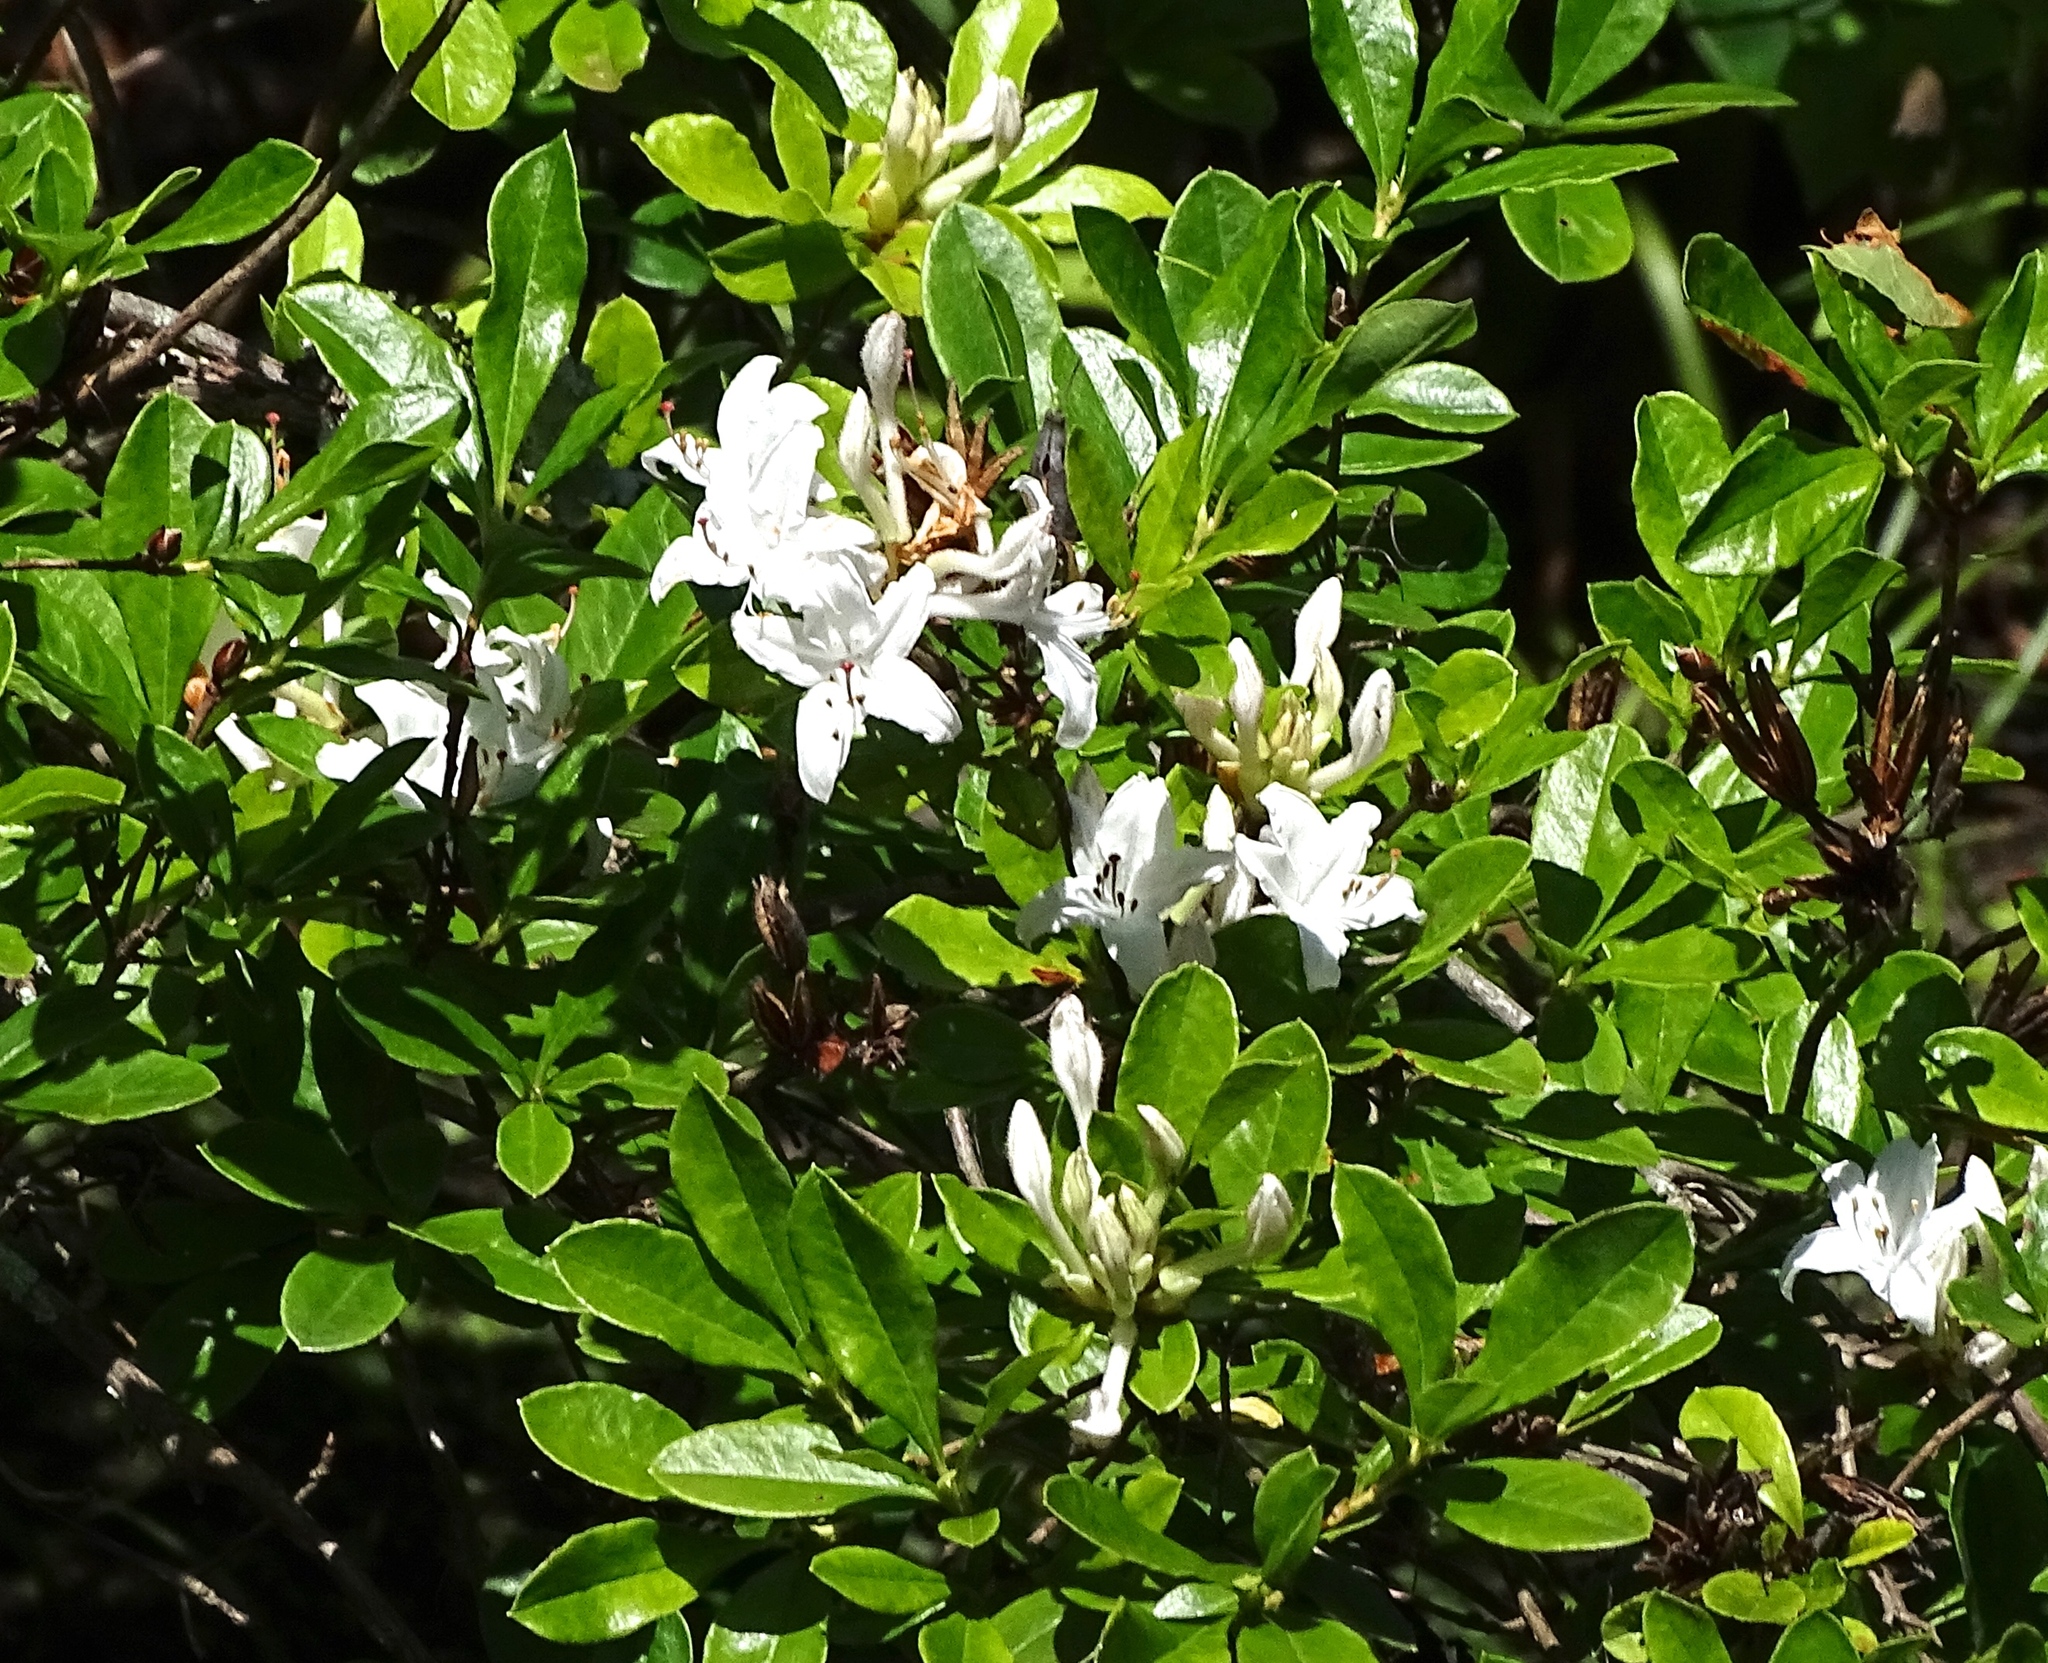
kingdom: Plantae
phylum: Tracheophyta
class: Magnoliopsida
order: Ericales
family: Ericaceae
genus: Rhododendron
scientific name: Rhododendron viscosum
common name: Clammy azalea
